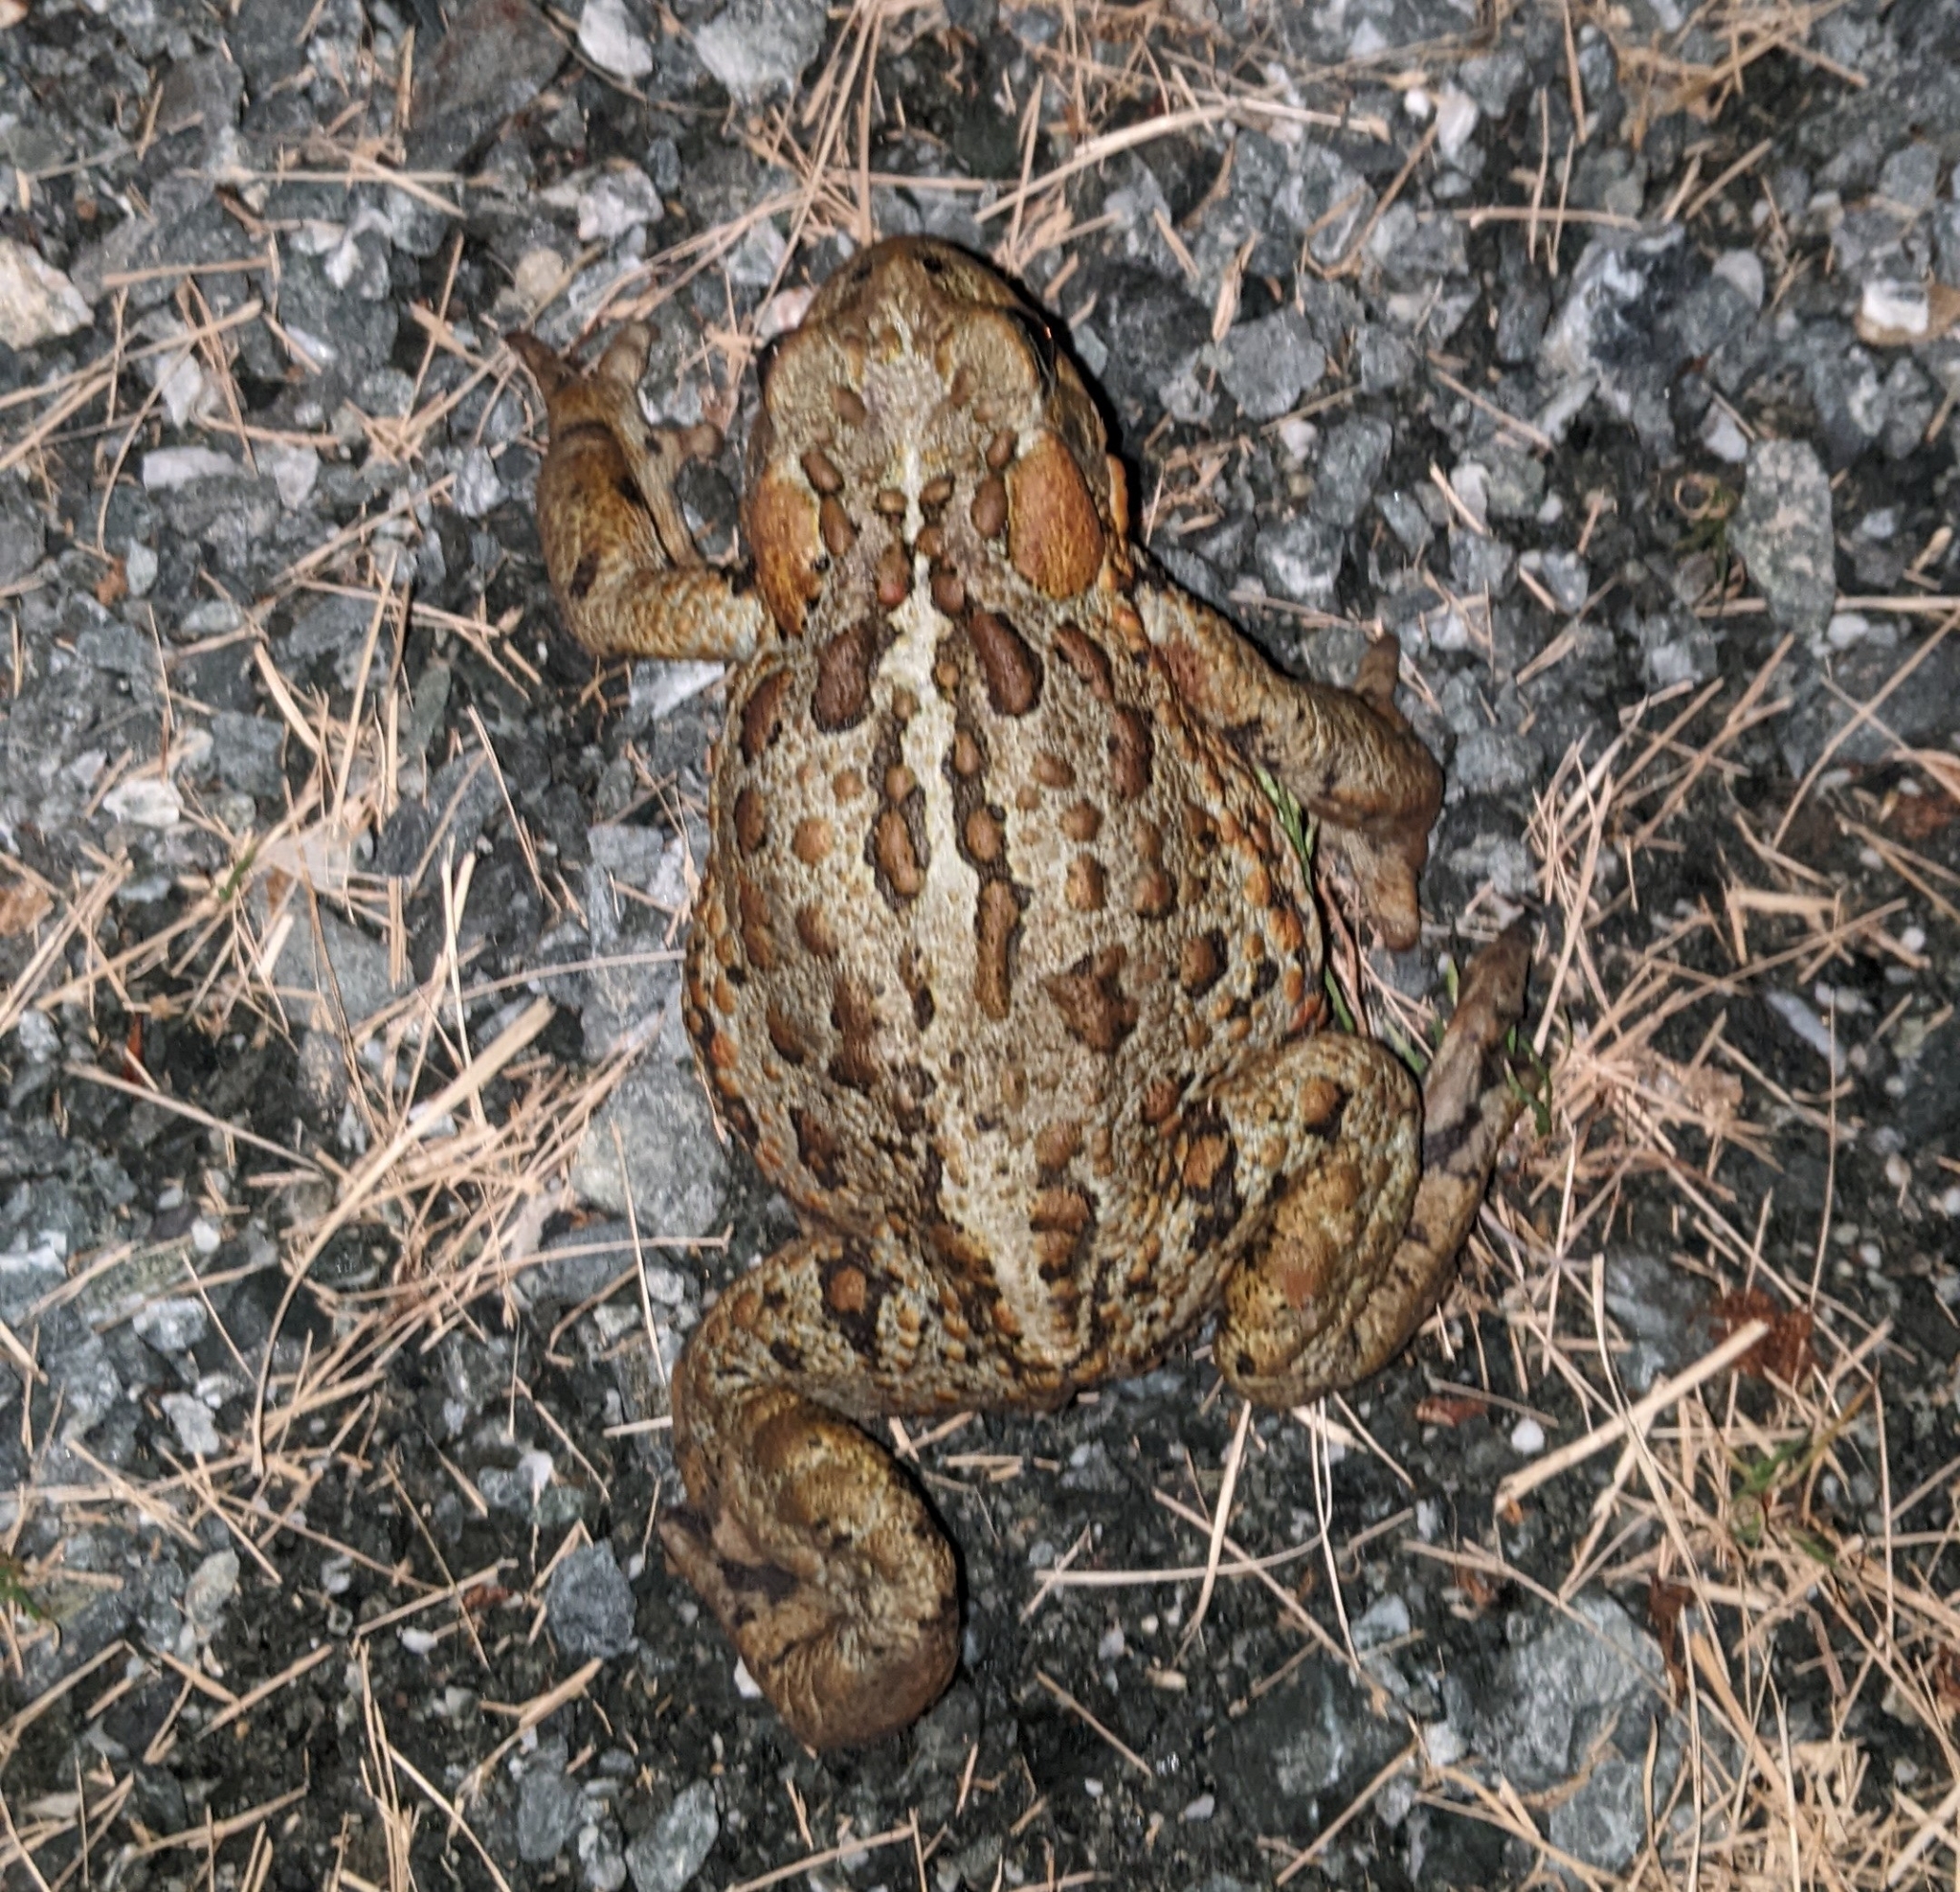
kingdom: Animalia
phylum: Chordata
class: Amphibia
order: Anura
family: Bufonidae
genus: Anaxyrus
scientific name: Anaxyrus boreas
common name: Western toad
